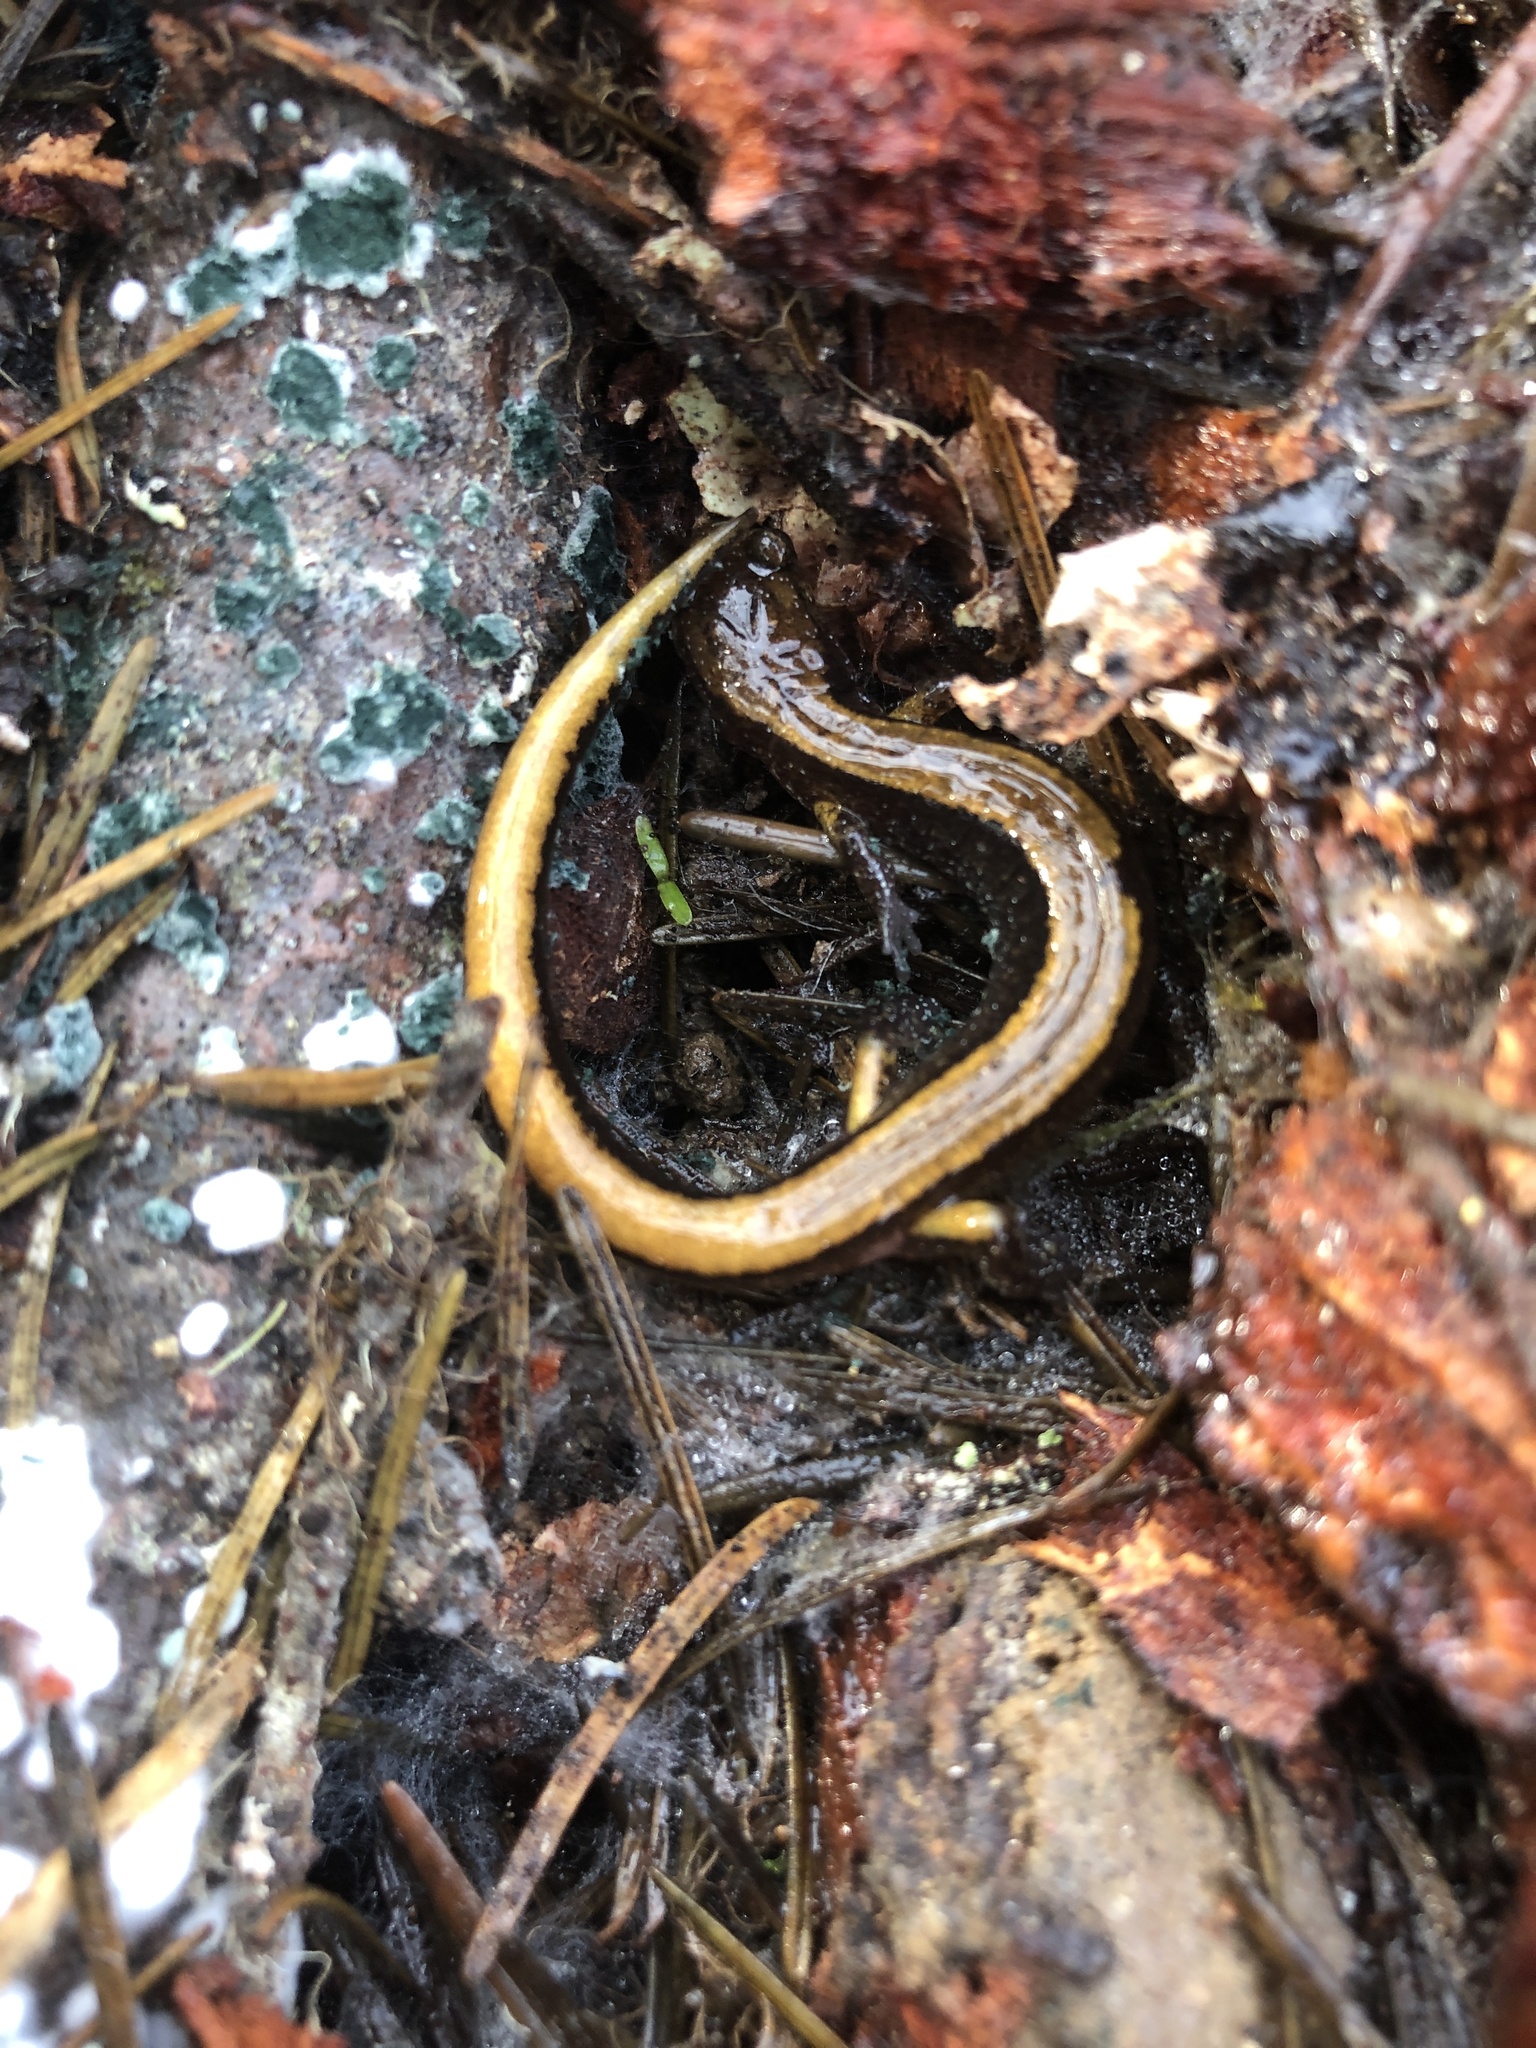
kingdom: Animalia
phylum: Chordata
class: Amphibia
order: Caudata
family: Plethodontidae
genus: Plethodon
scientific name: Plethodon vehiculum
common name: Western red-backed salamander
